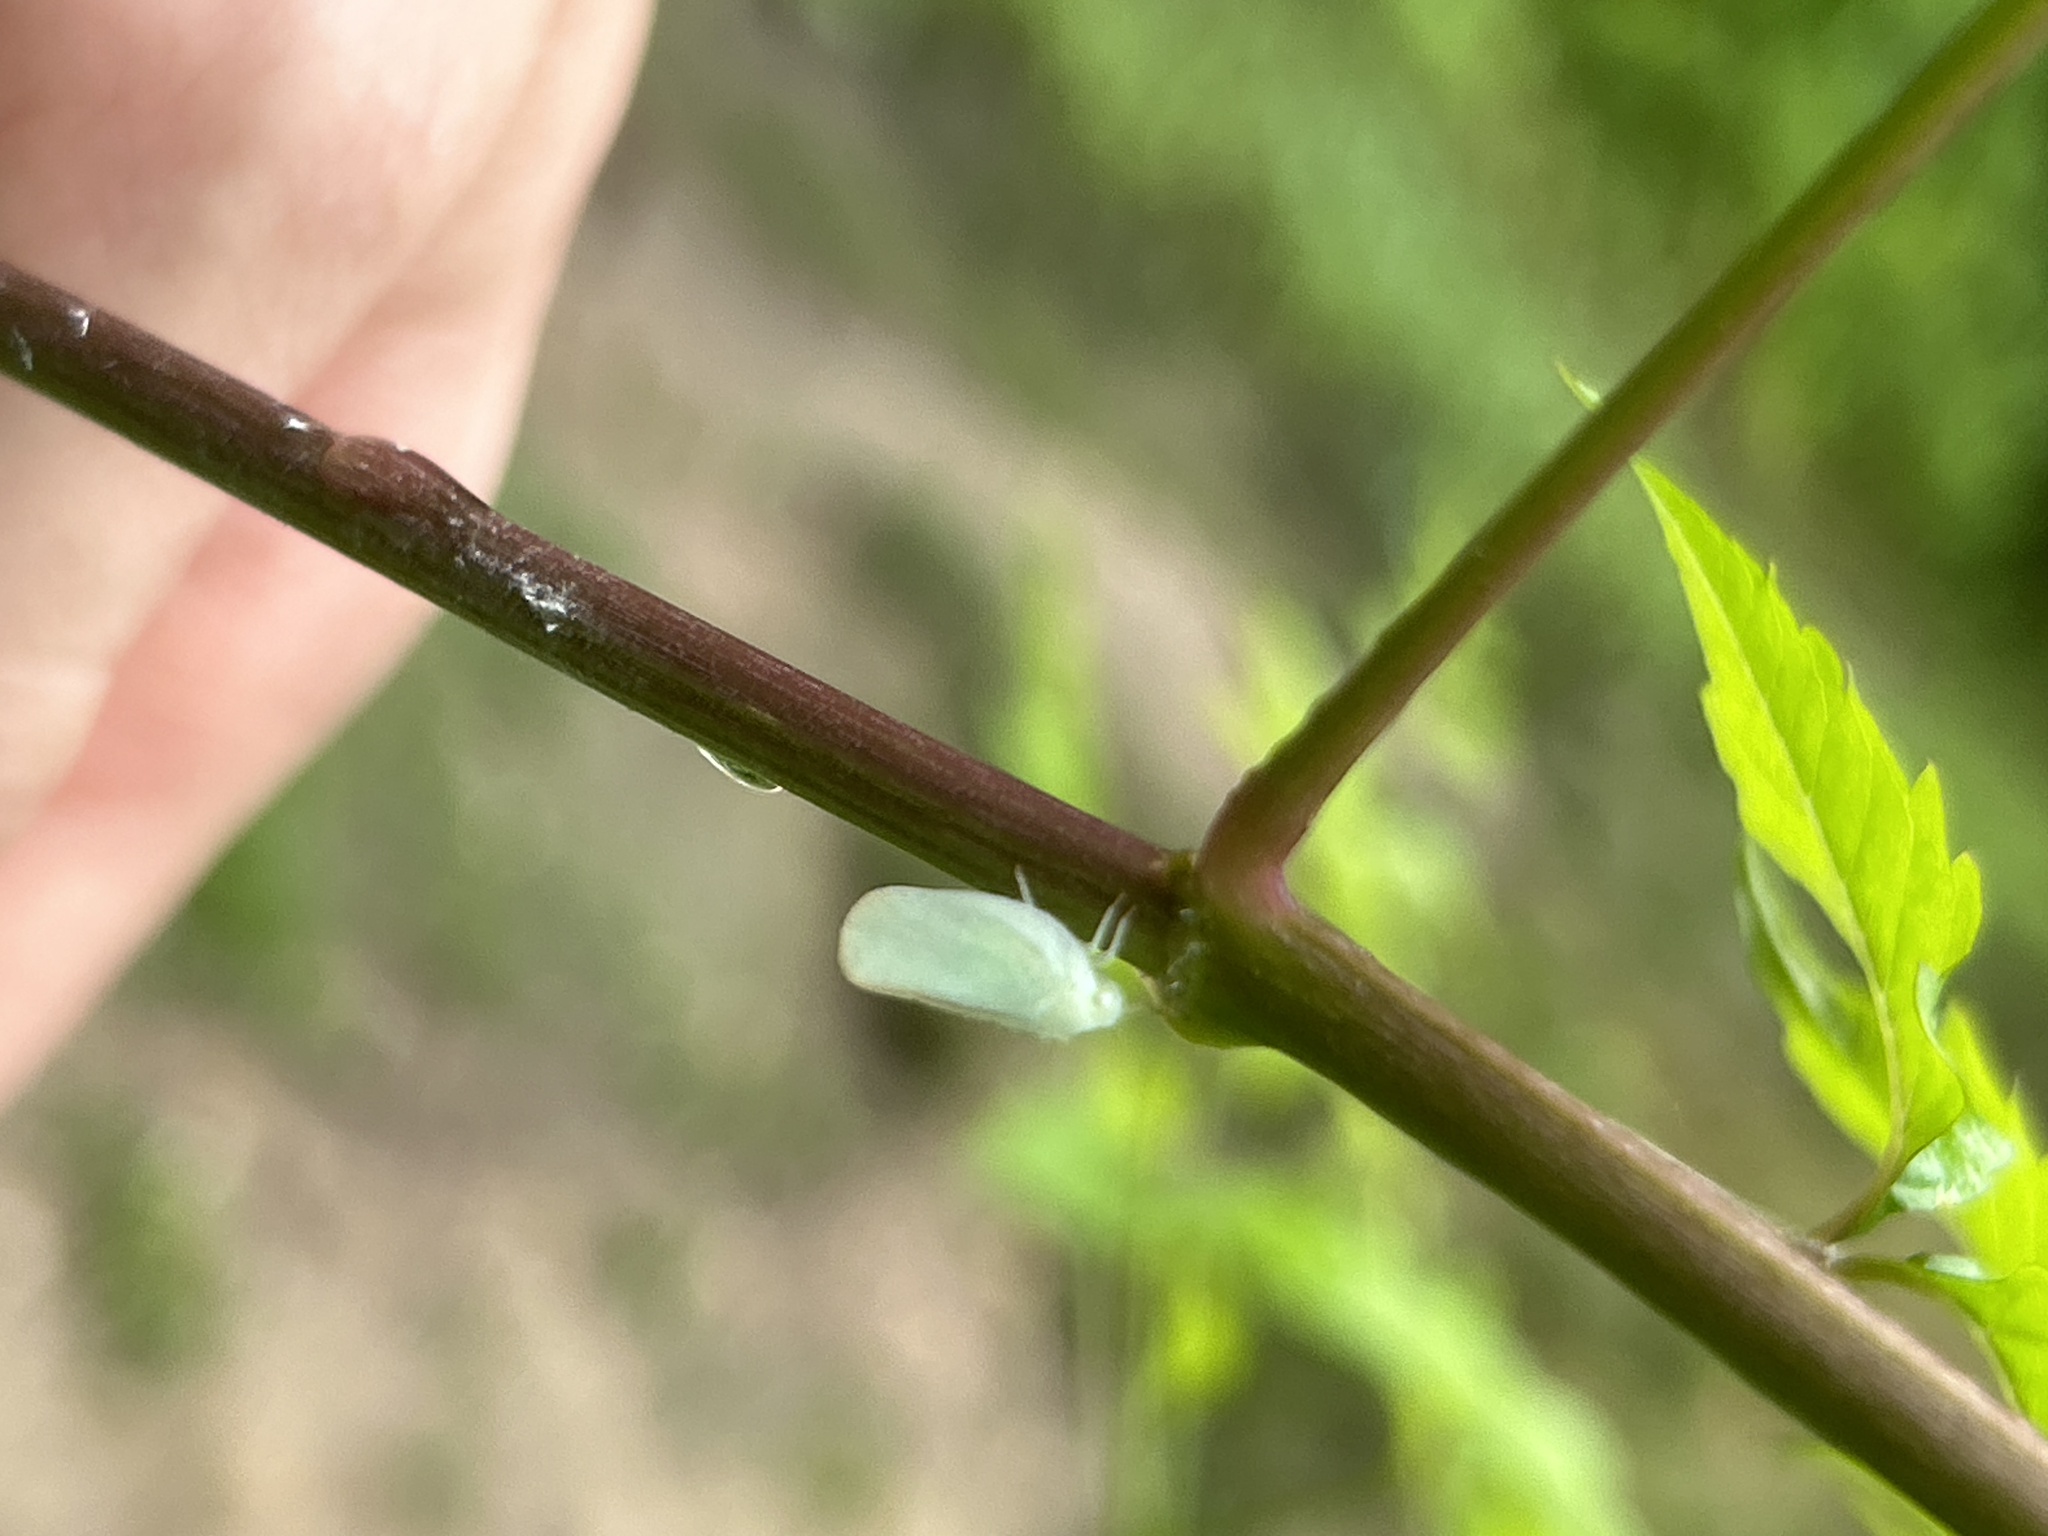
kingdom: Animalia
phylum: Arthropoda
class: Insecta
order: Hemiptera
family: Flatidae
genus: Ormenoides
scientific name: Ormenoides venusta
